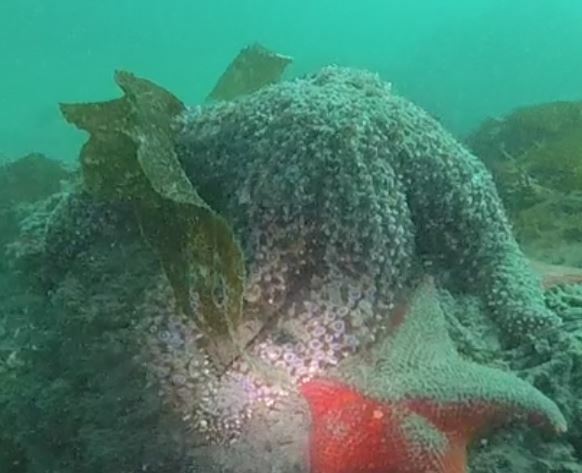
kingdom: Animalia
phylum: Echinodermata
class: Asteroidea
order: Forcipulatida
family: Asteriidae
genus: Pisaster
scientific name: Pisaster giganteus
